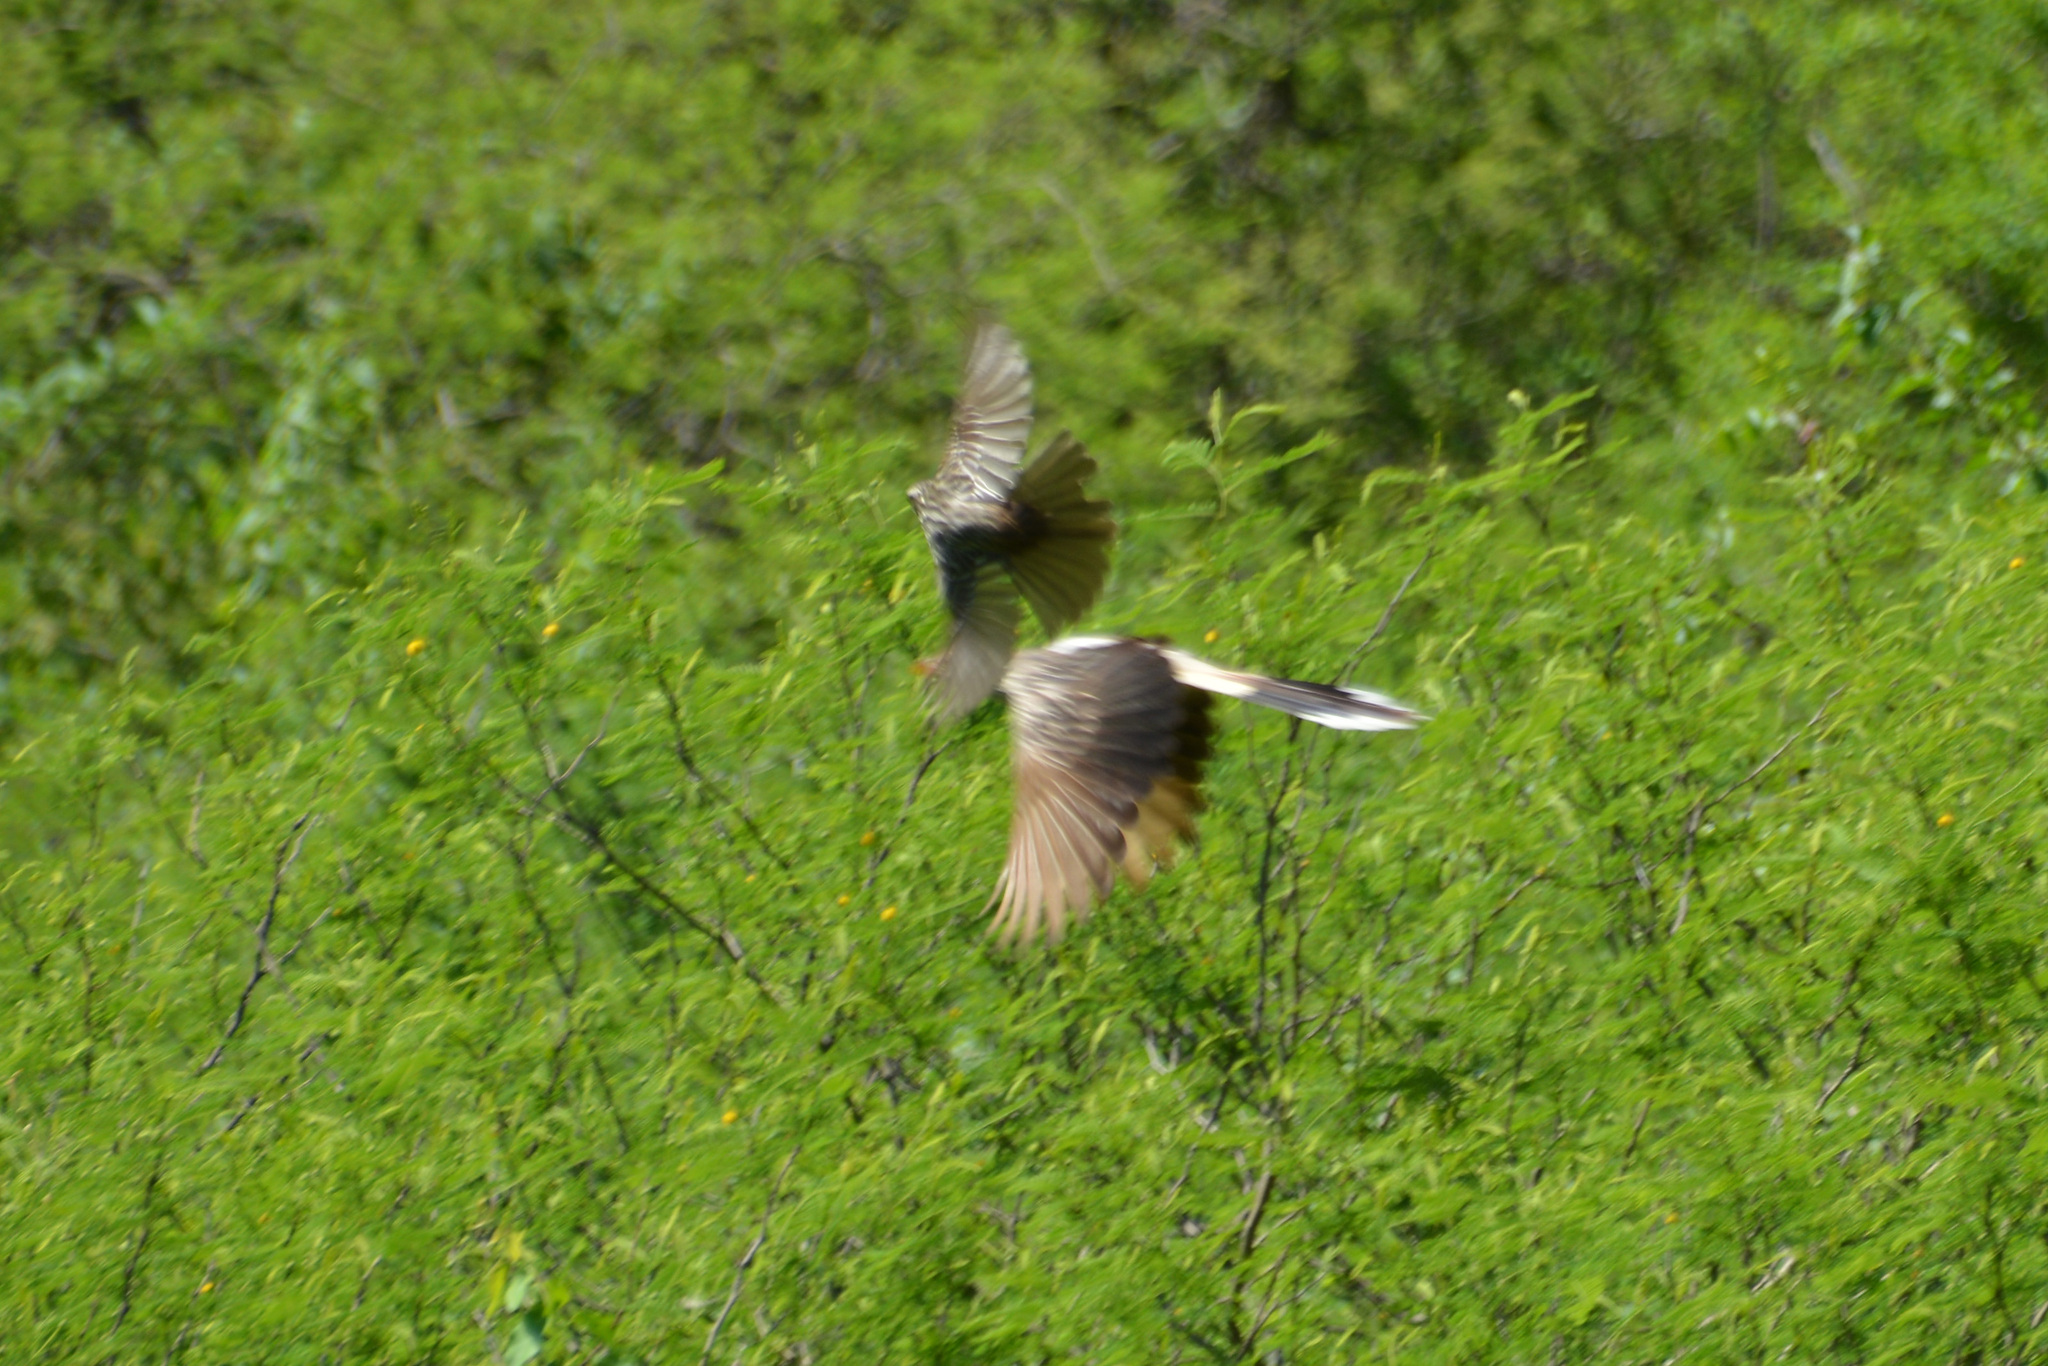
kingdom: Animalia
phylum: Chordata
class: Aves
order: Cuculiformes
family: Cuculidae
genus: Guira
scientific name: Guira guira
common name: Guira cuckoo
